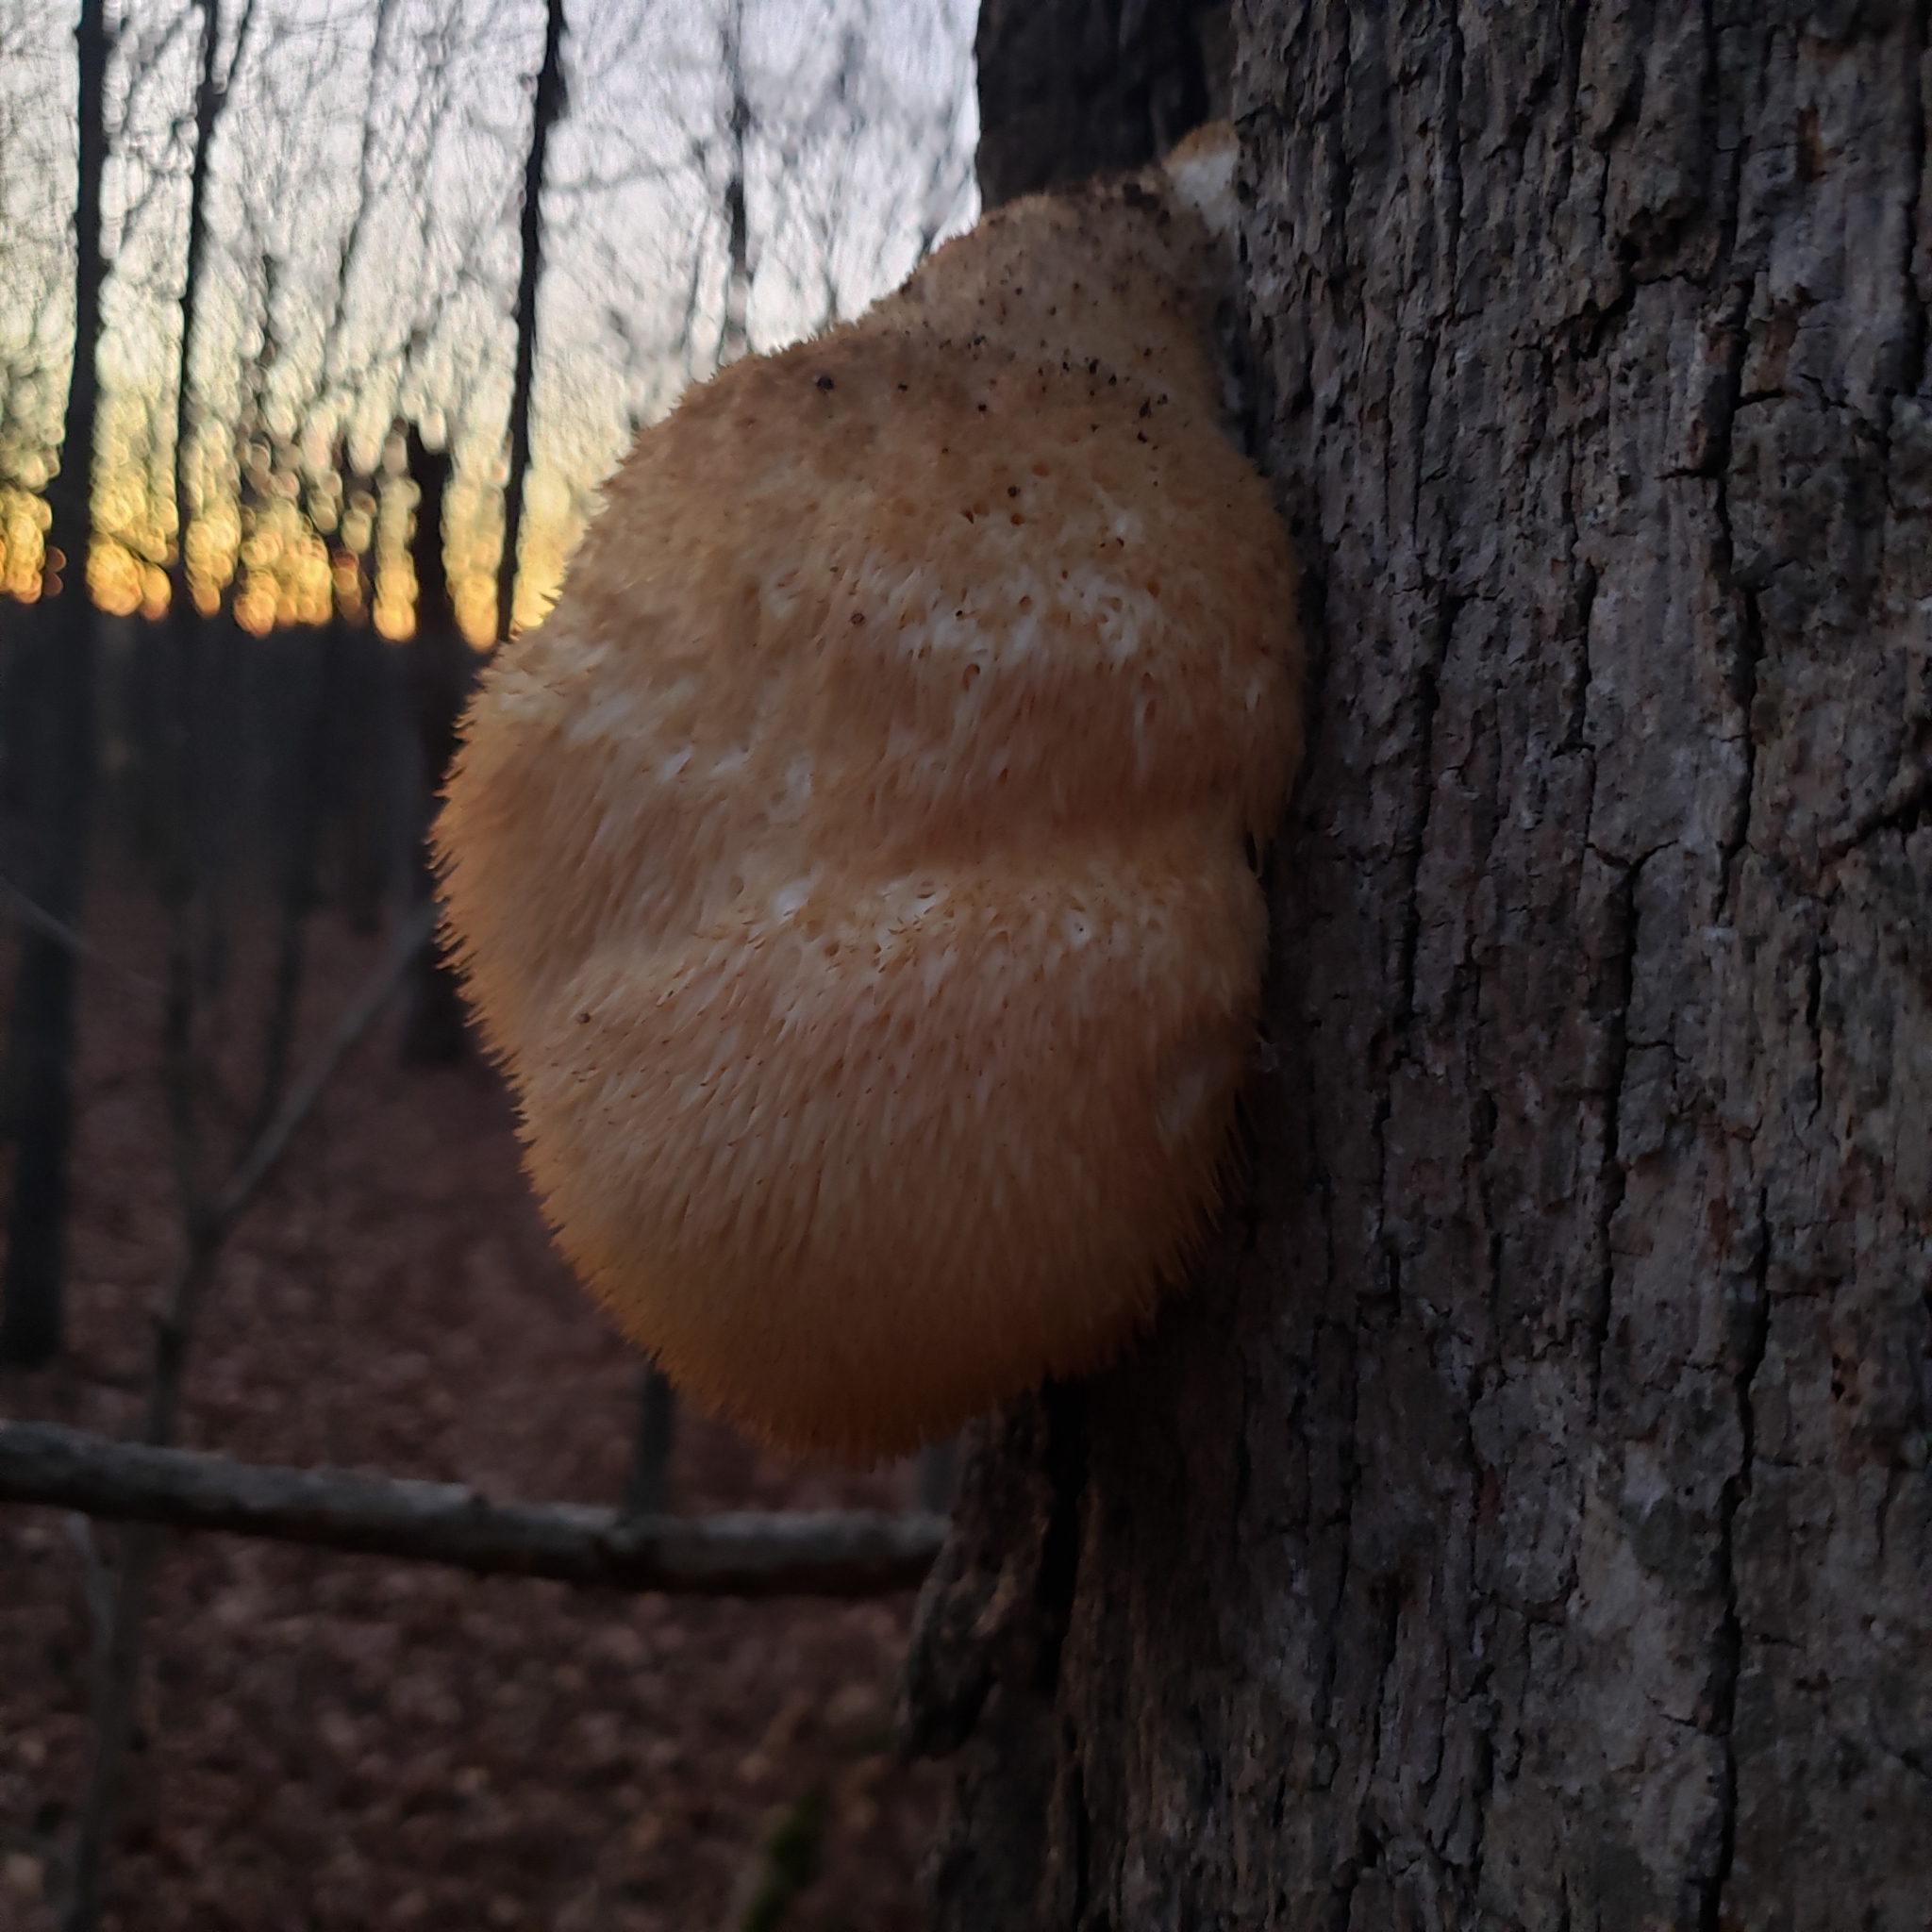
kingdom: Fungi
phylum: Basidiomycota
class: Agaricomycetes
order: Russulales
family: Hericiaceae
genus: Hericium
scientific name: Hericium erinaceus
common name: Bearded tooth
